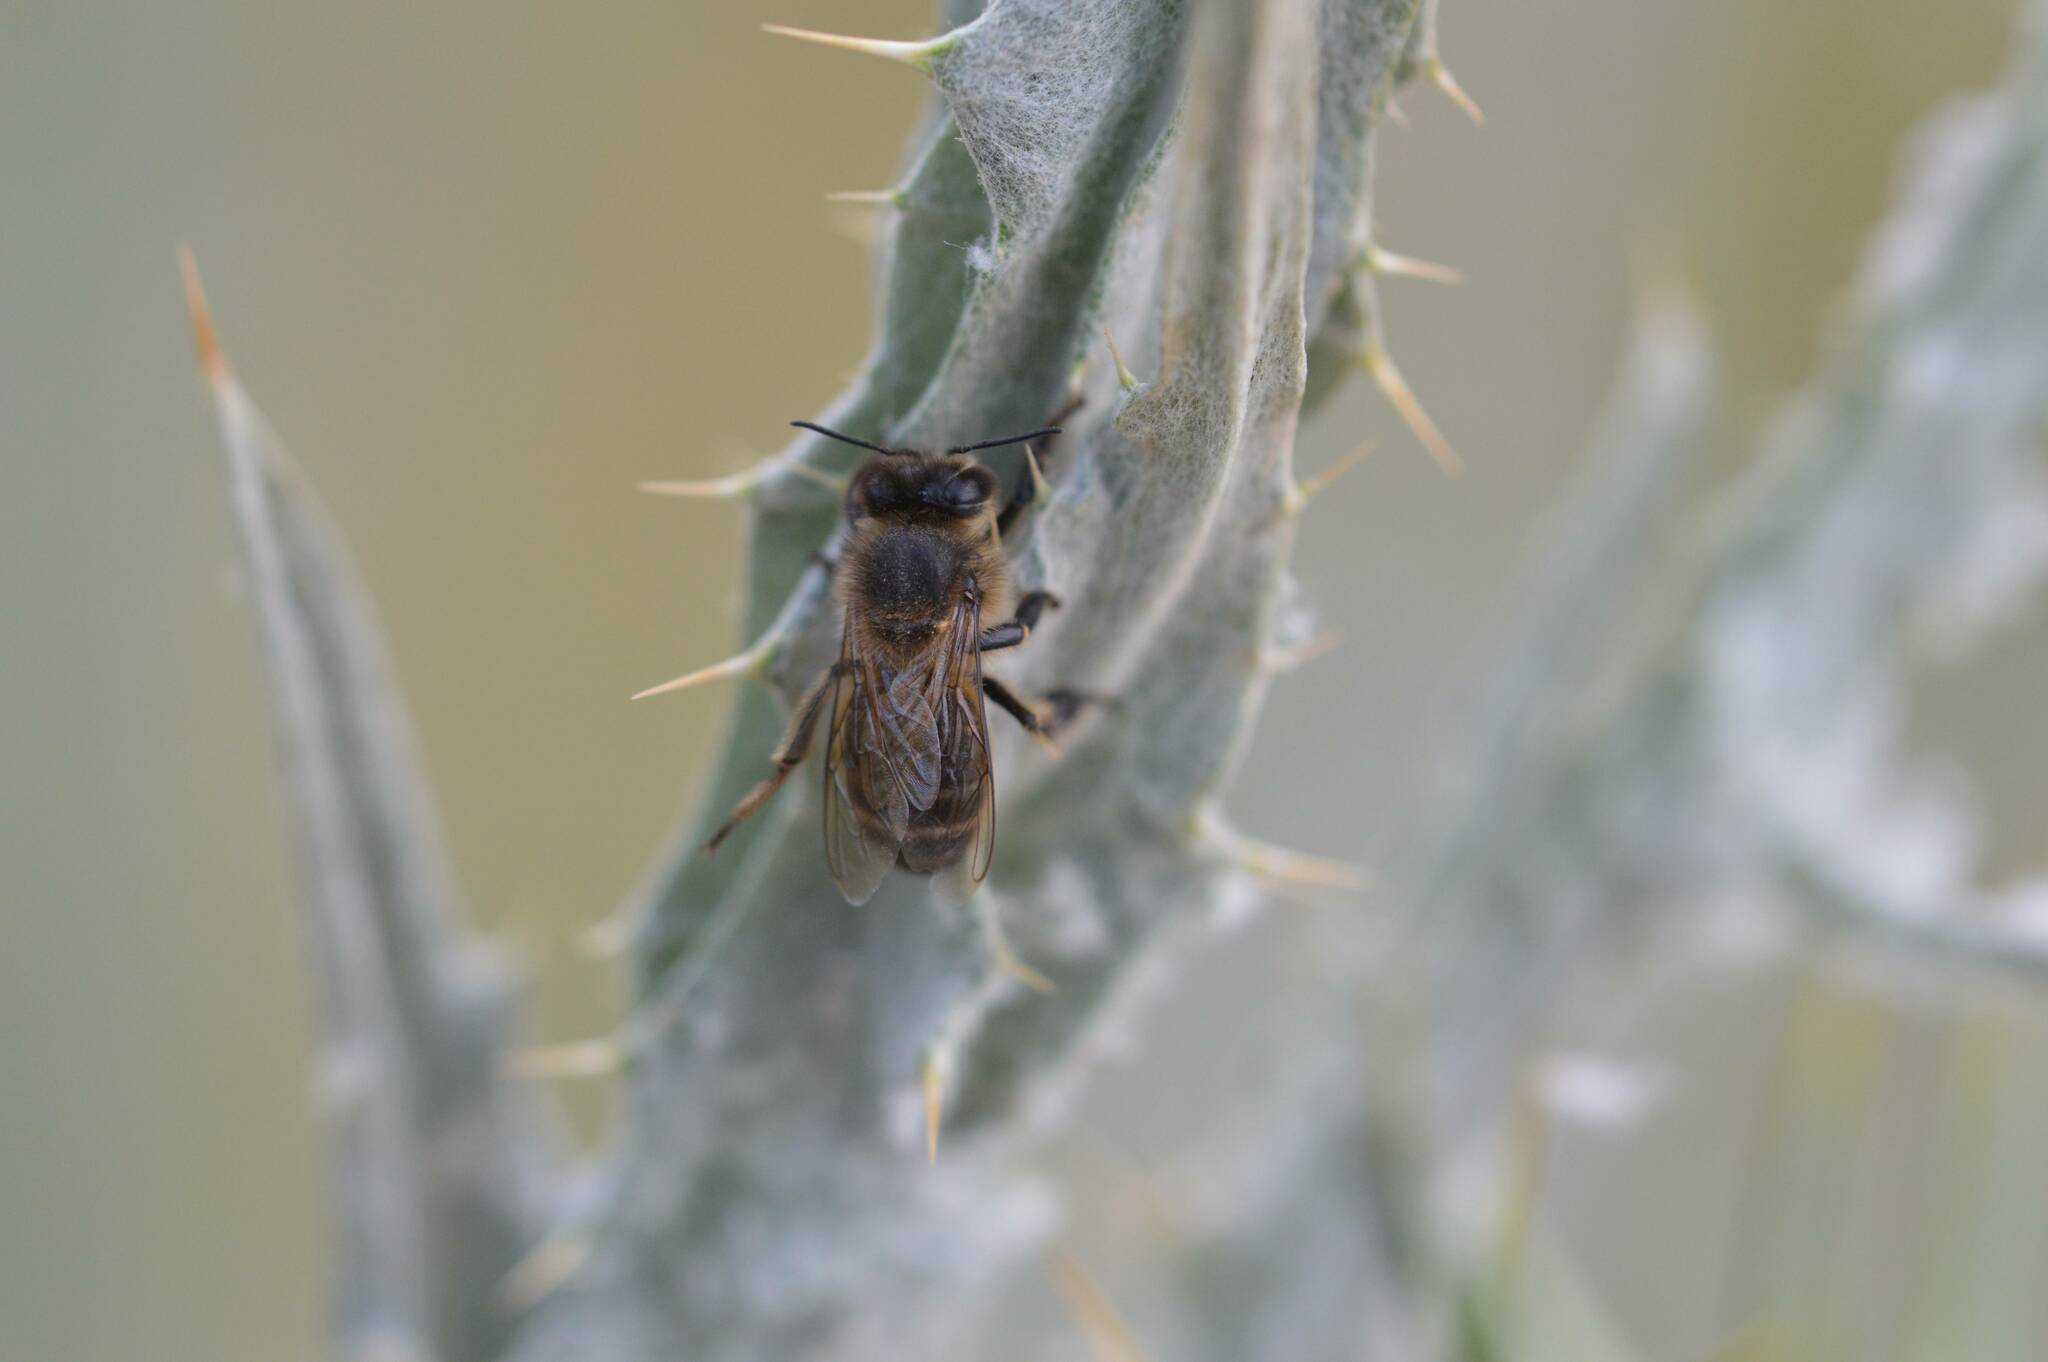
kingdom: Animalia
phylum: Arthropoda
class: Insecta
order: Hymenoptera
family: Apidae
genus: Apis
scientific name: Apis mellifera
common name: Honey bee
